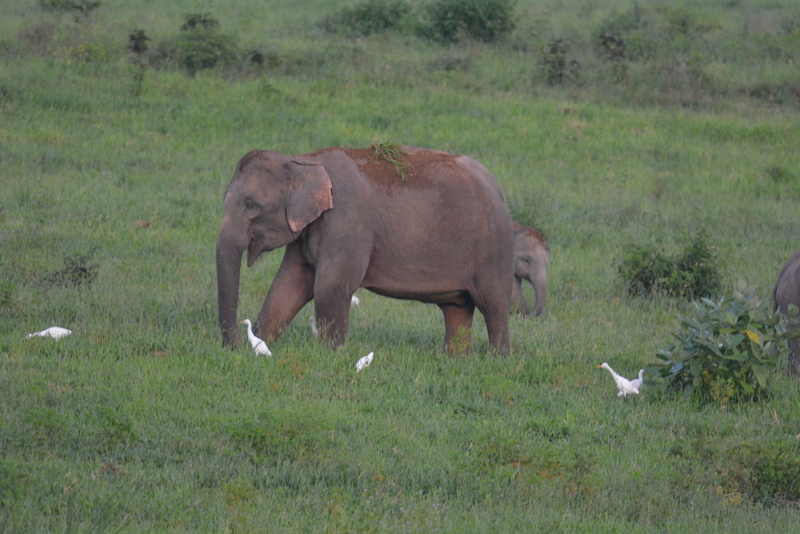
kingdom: Animalia
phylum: Chordata
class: Mammalia
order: Proboscidea
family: Elephantidae
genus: Elephas
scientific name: Elephas maximus
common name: Asian elephant
